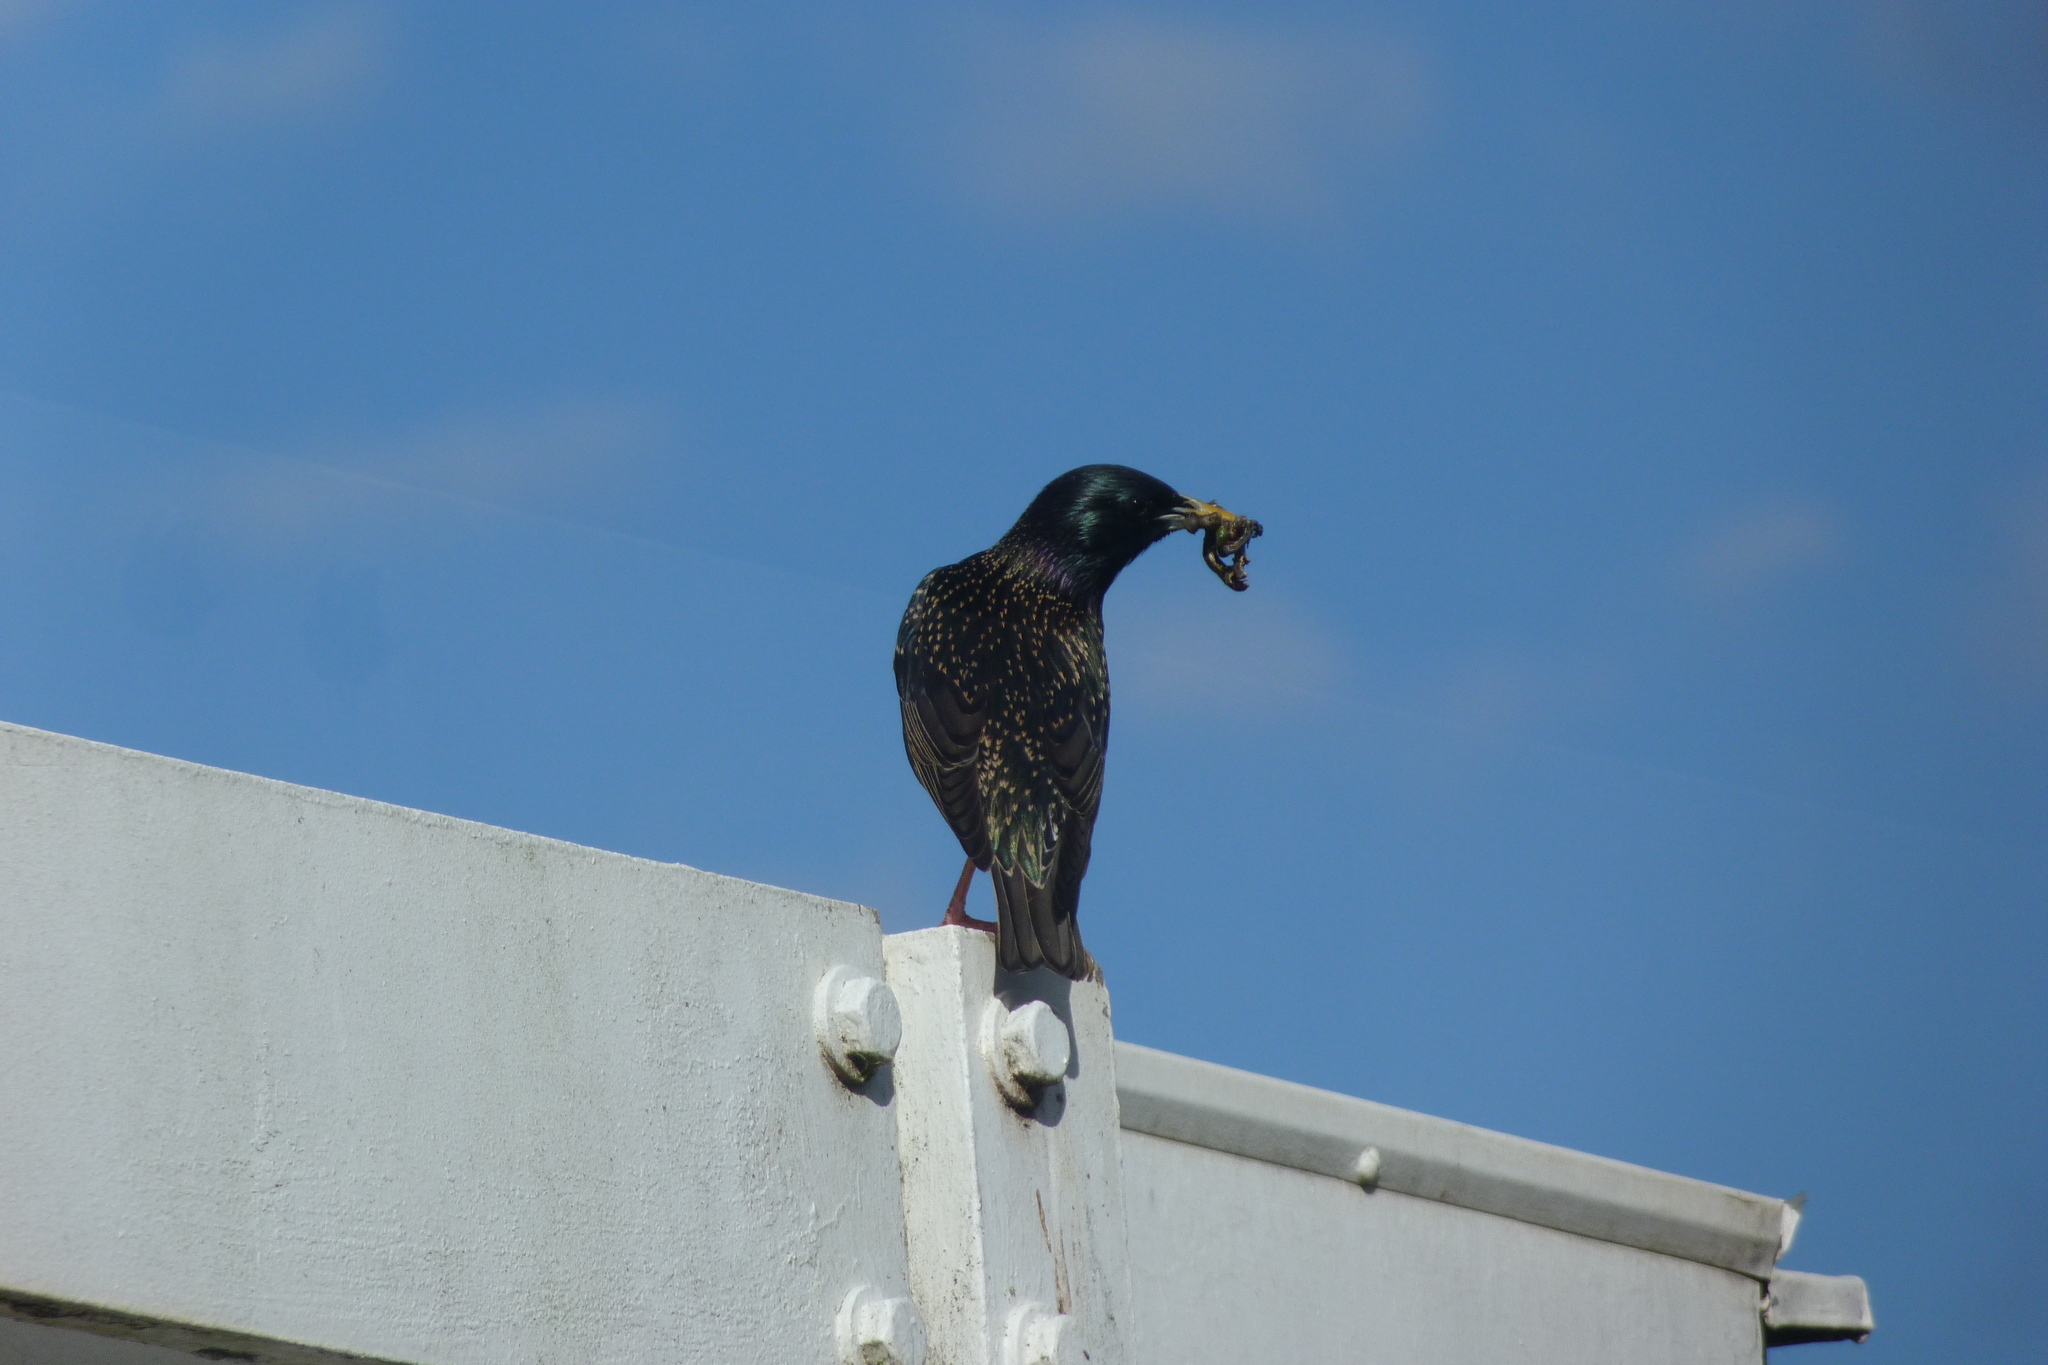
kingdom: Animalia
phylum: Chordata
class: Aves
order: Passeriformes
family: Sturnidae
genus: Sturnus
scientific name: Sturnus vulgaris
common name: Common starling
